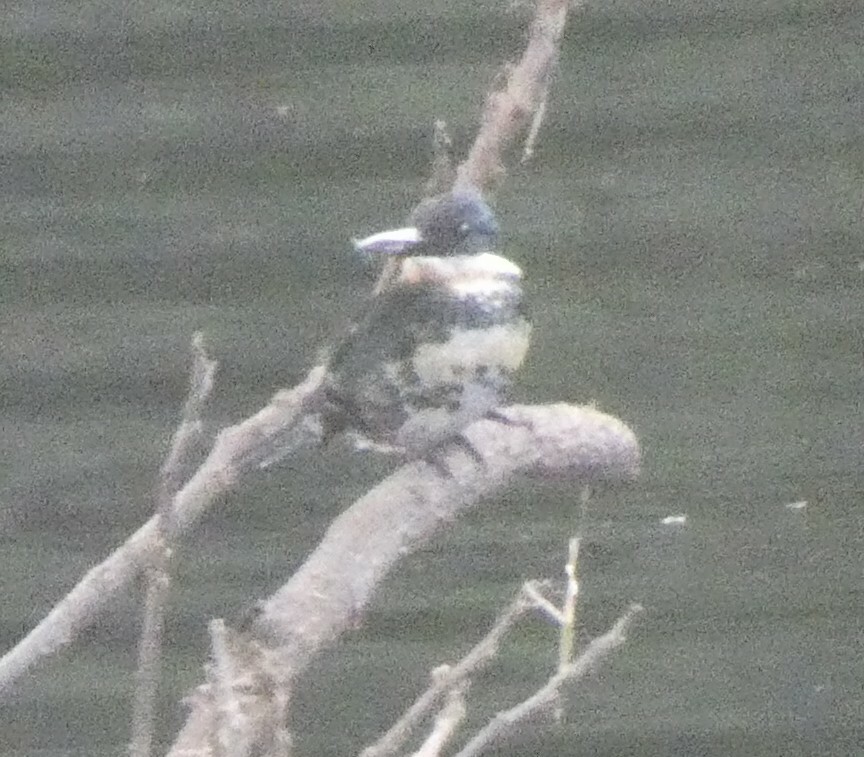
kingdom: Animalia
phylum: Chordata
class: Aves
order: Coraciiformes
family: Alcedinidae
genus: Chloroceryle
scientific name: Chloroceryle americana
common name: Green kingfisher
